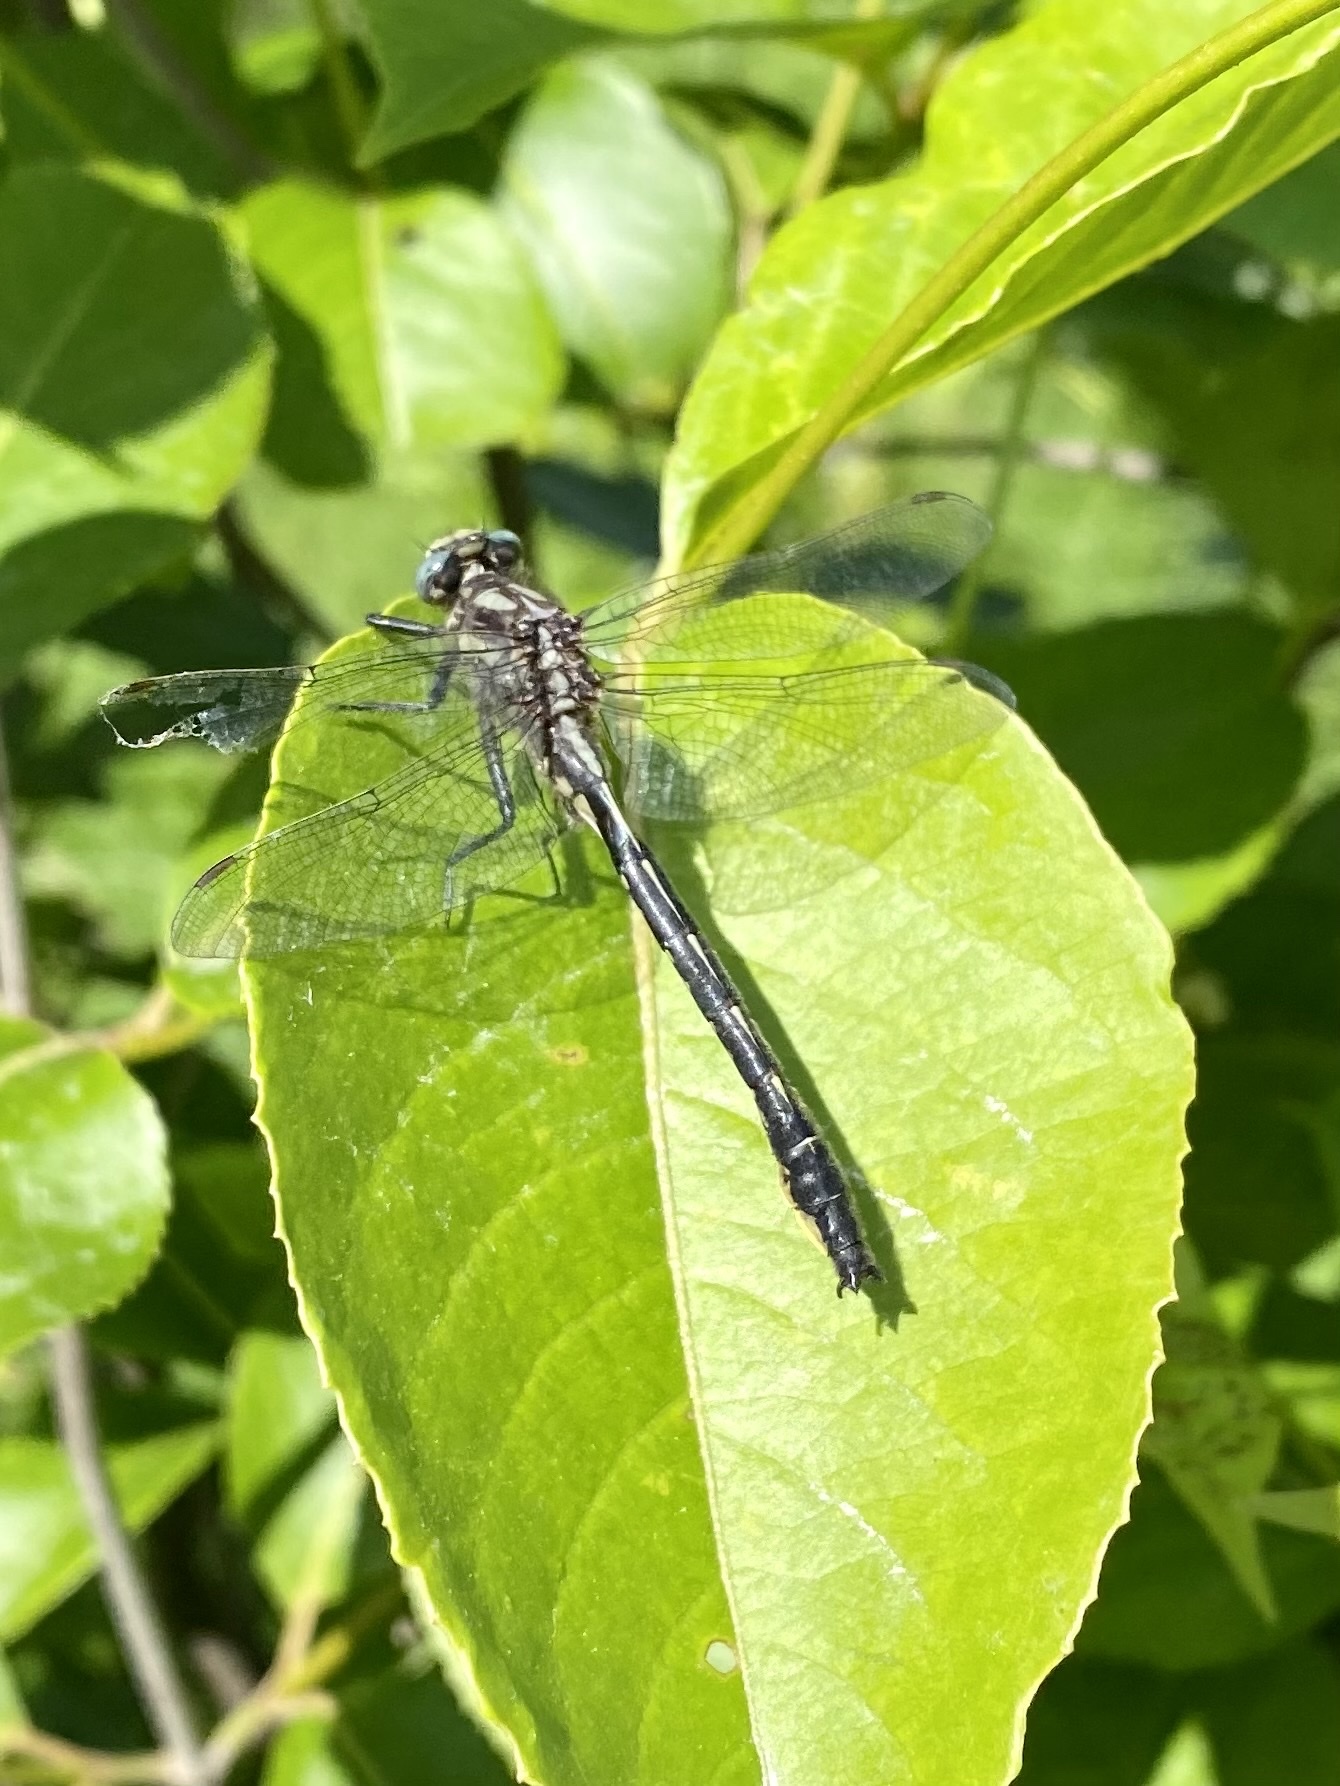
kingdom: Animalia
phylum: Arthropoda
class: Insecta
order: Odonata
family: Gomphidae
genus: Phanogomphus
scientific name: Phanogomphus borealis
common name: Beaverpond clubtail
